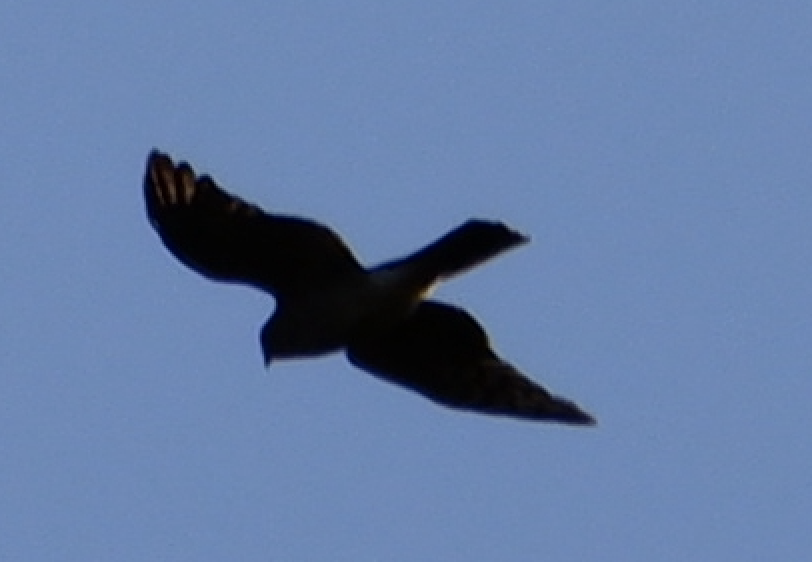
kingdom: Animalia
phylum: Chordata
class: Aves
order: Accipitriformes
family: Accipitridae
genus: Circus
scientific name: Circus cyaneus
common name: Hen harrier
